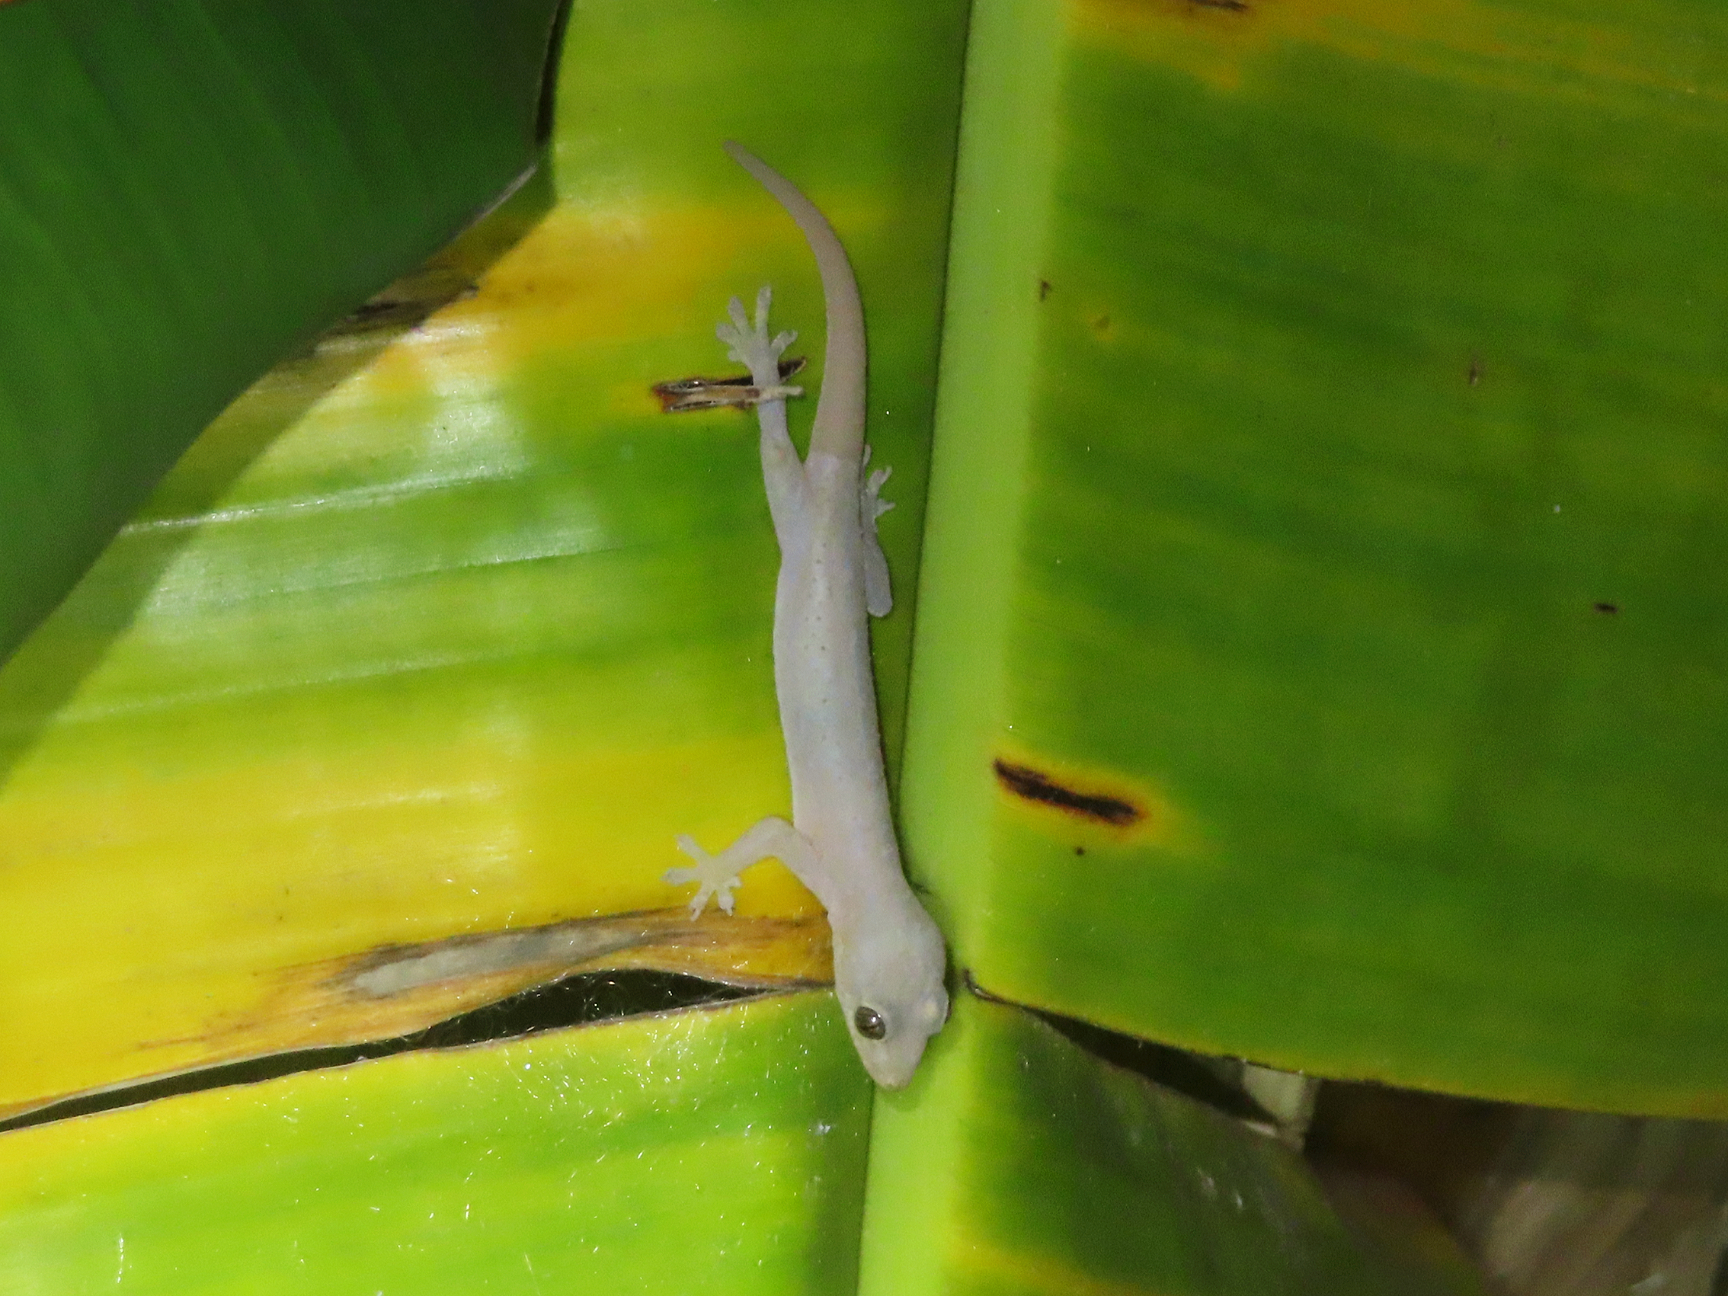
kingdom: Animalia
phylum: Chordata
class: Squamata
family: Gekkonidae
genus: Hemidactylus
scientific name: Hemidactylus frenatus
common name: Common house gecko
